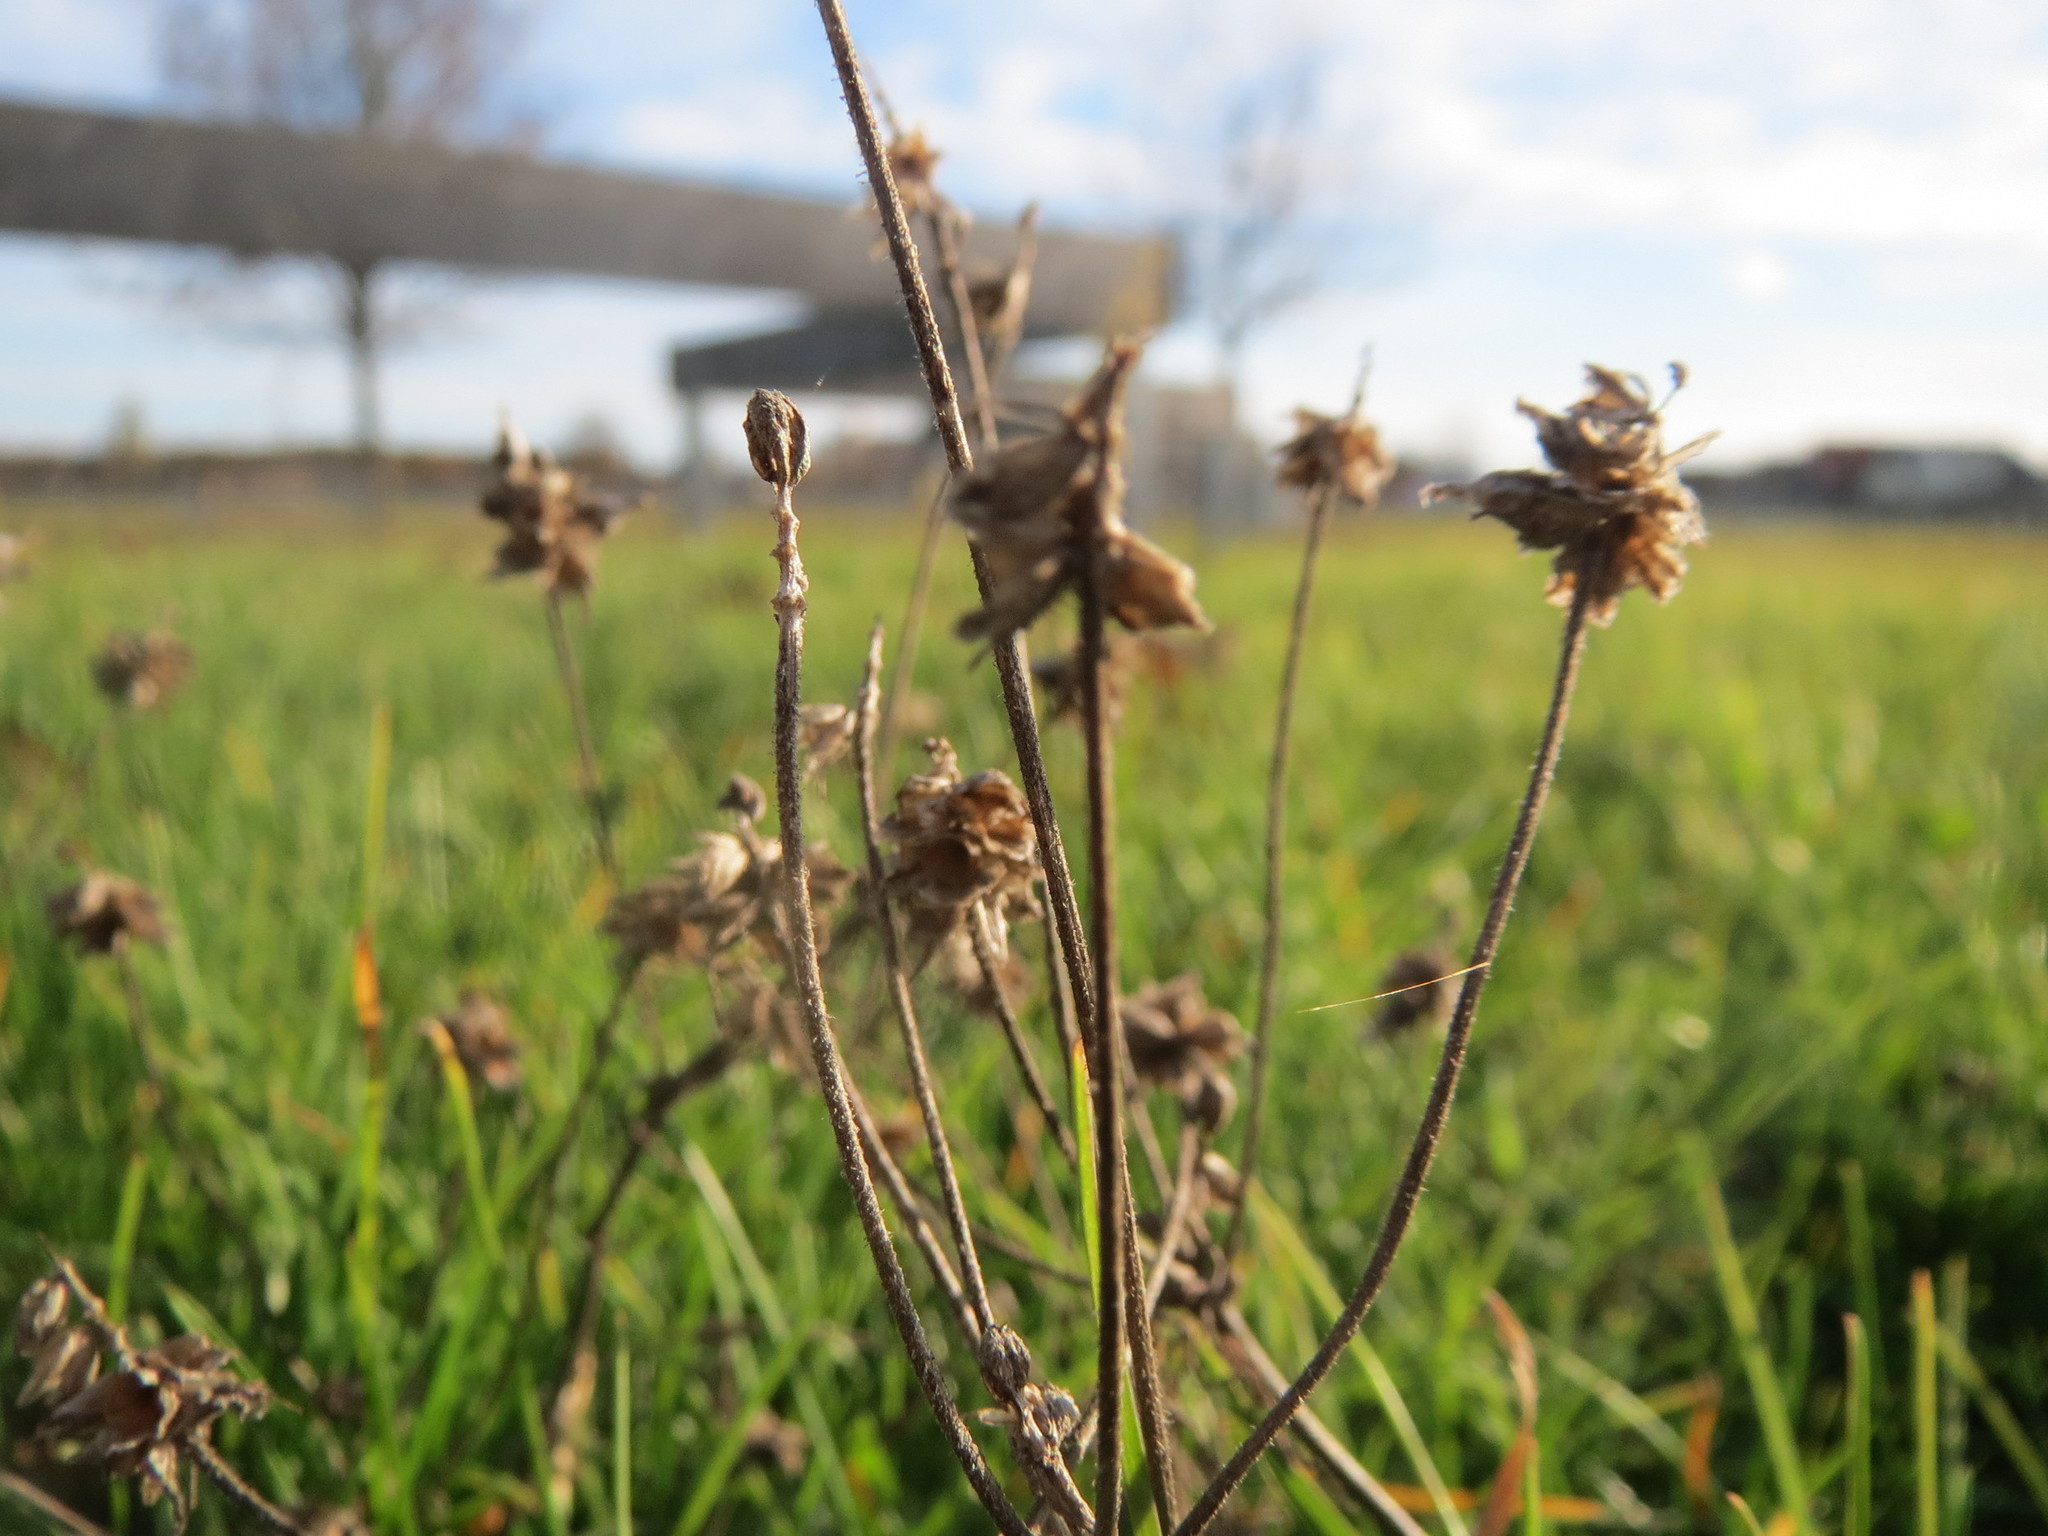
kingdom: Plantae
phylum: Tracheophyta
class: Magnoliopsida
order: Lamiales
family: Plantaginaceae
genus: Plantago
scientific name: Plantago arenaria
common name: Branched plantain
